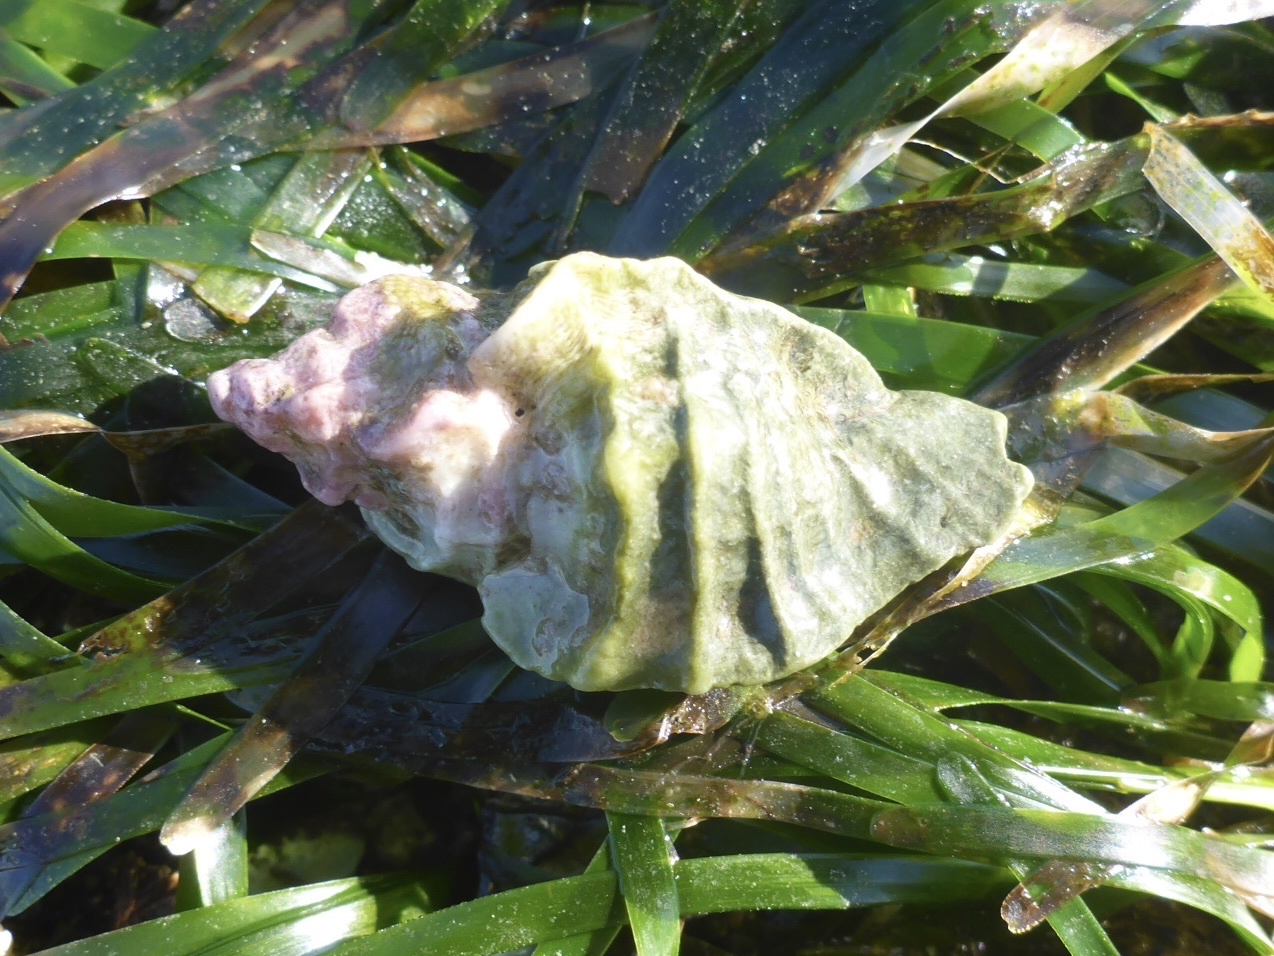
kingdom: Animalia
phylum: Mollusca
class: Gastropoda
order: Neogastropoda
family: Muricidae
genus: Ceratostoma
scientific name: Ceratostoma foliatum
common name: Foliate thorn purpura
